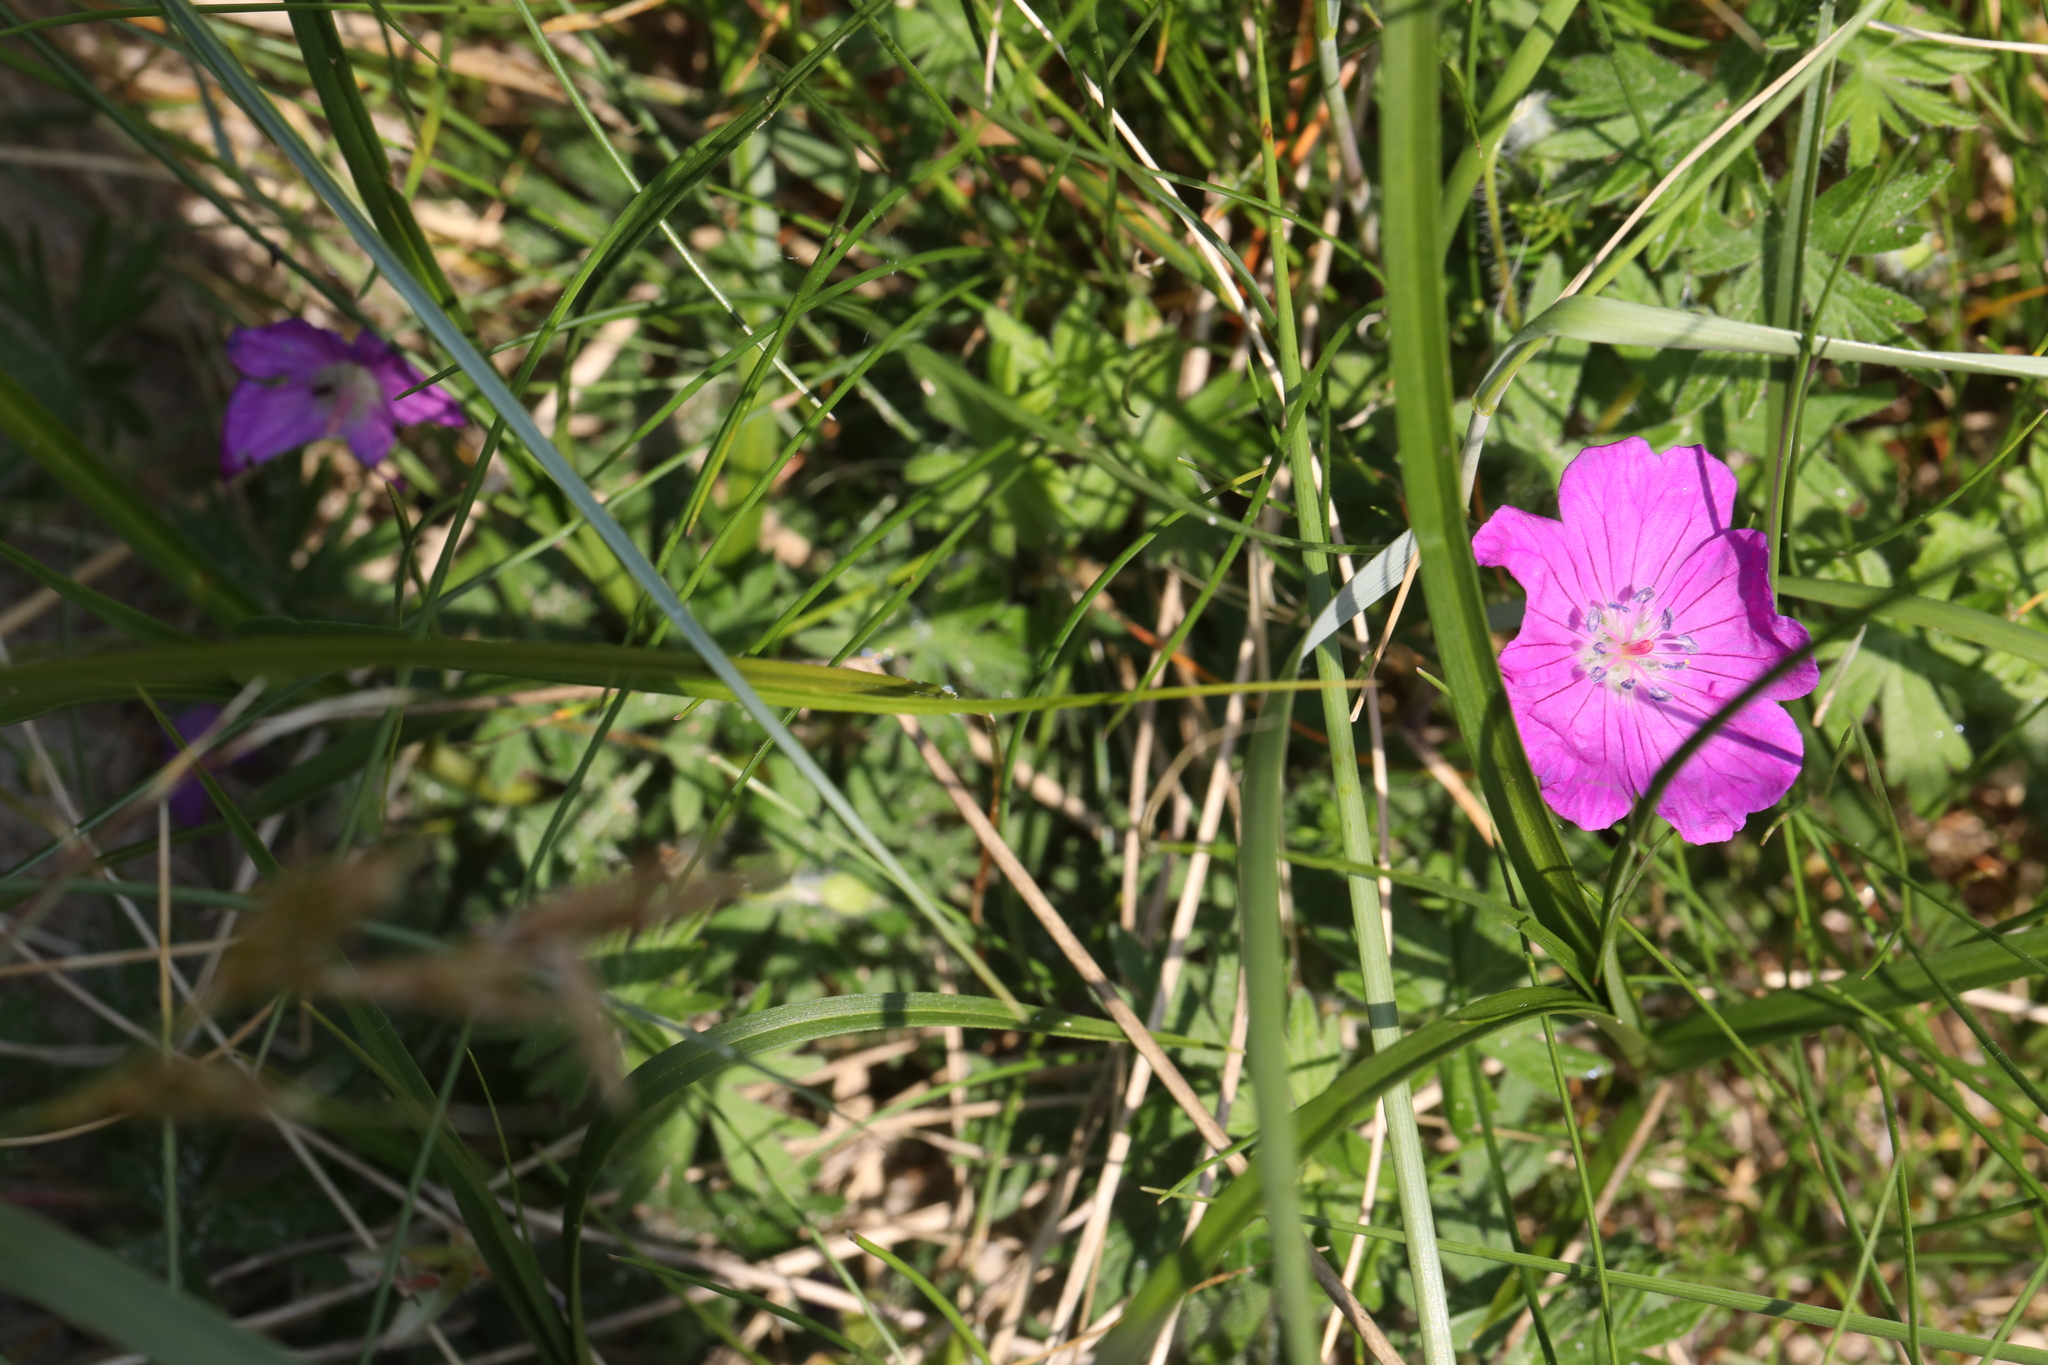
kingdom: Plantae
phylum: Tracheophyta
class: Magnoliopsida
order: Geraniales
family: Geraniaceae
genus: Geranium
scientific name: Geranium sanguineum
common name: Bloody crane's-bill
